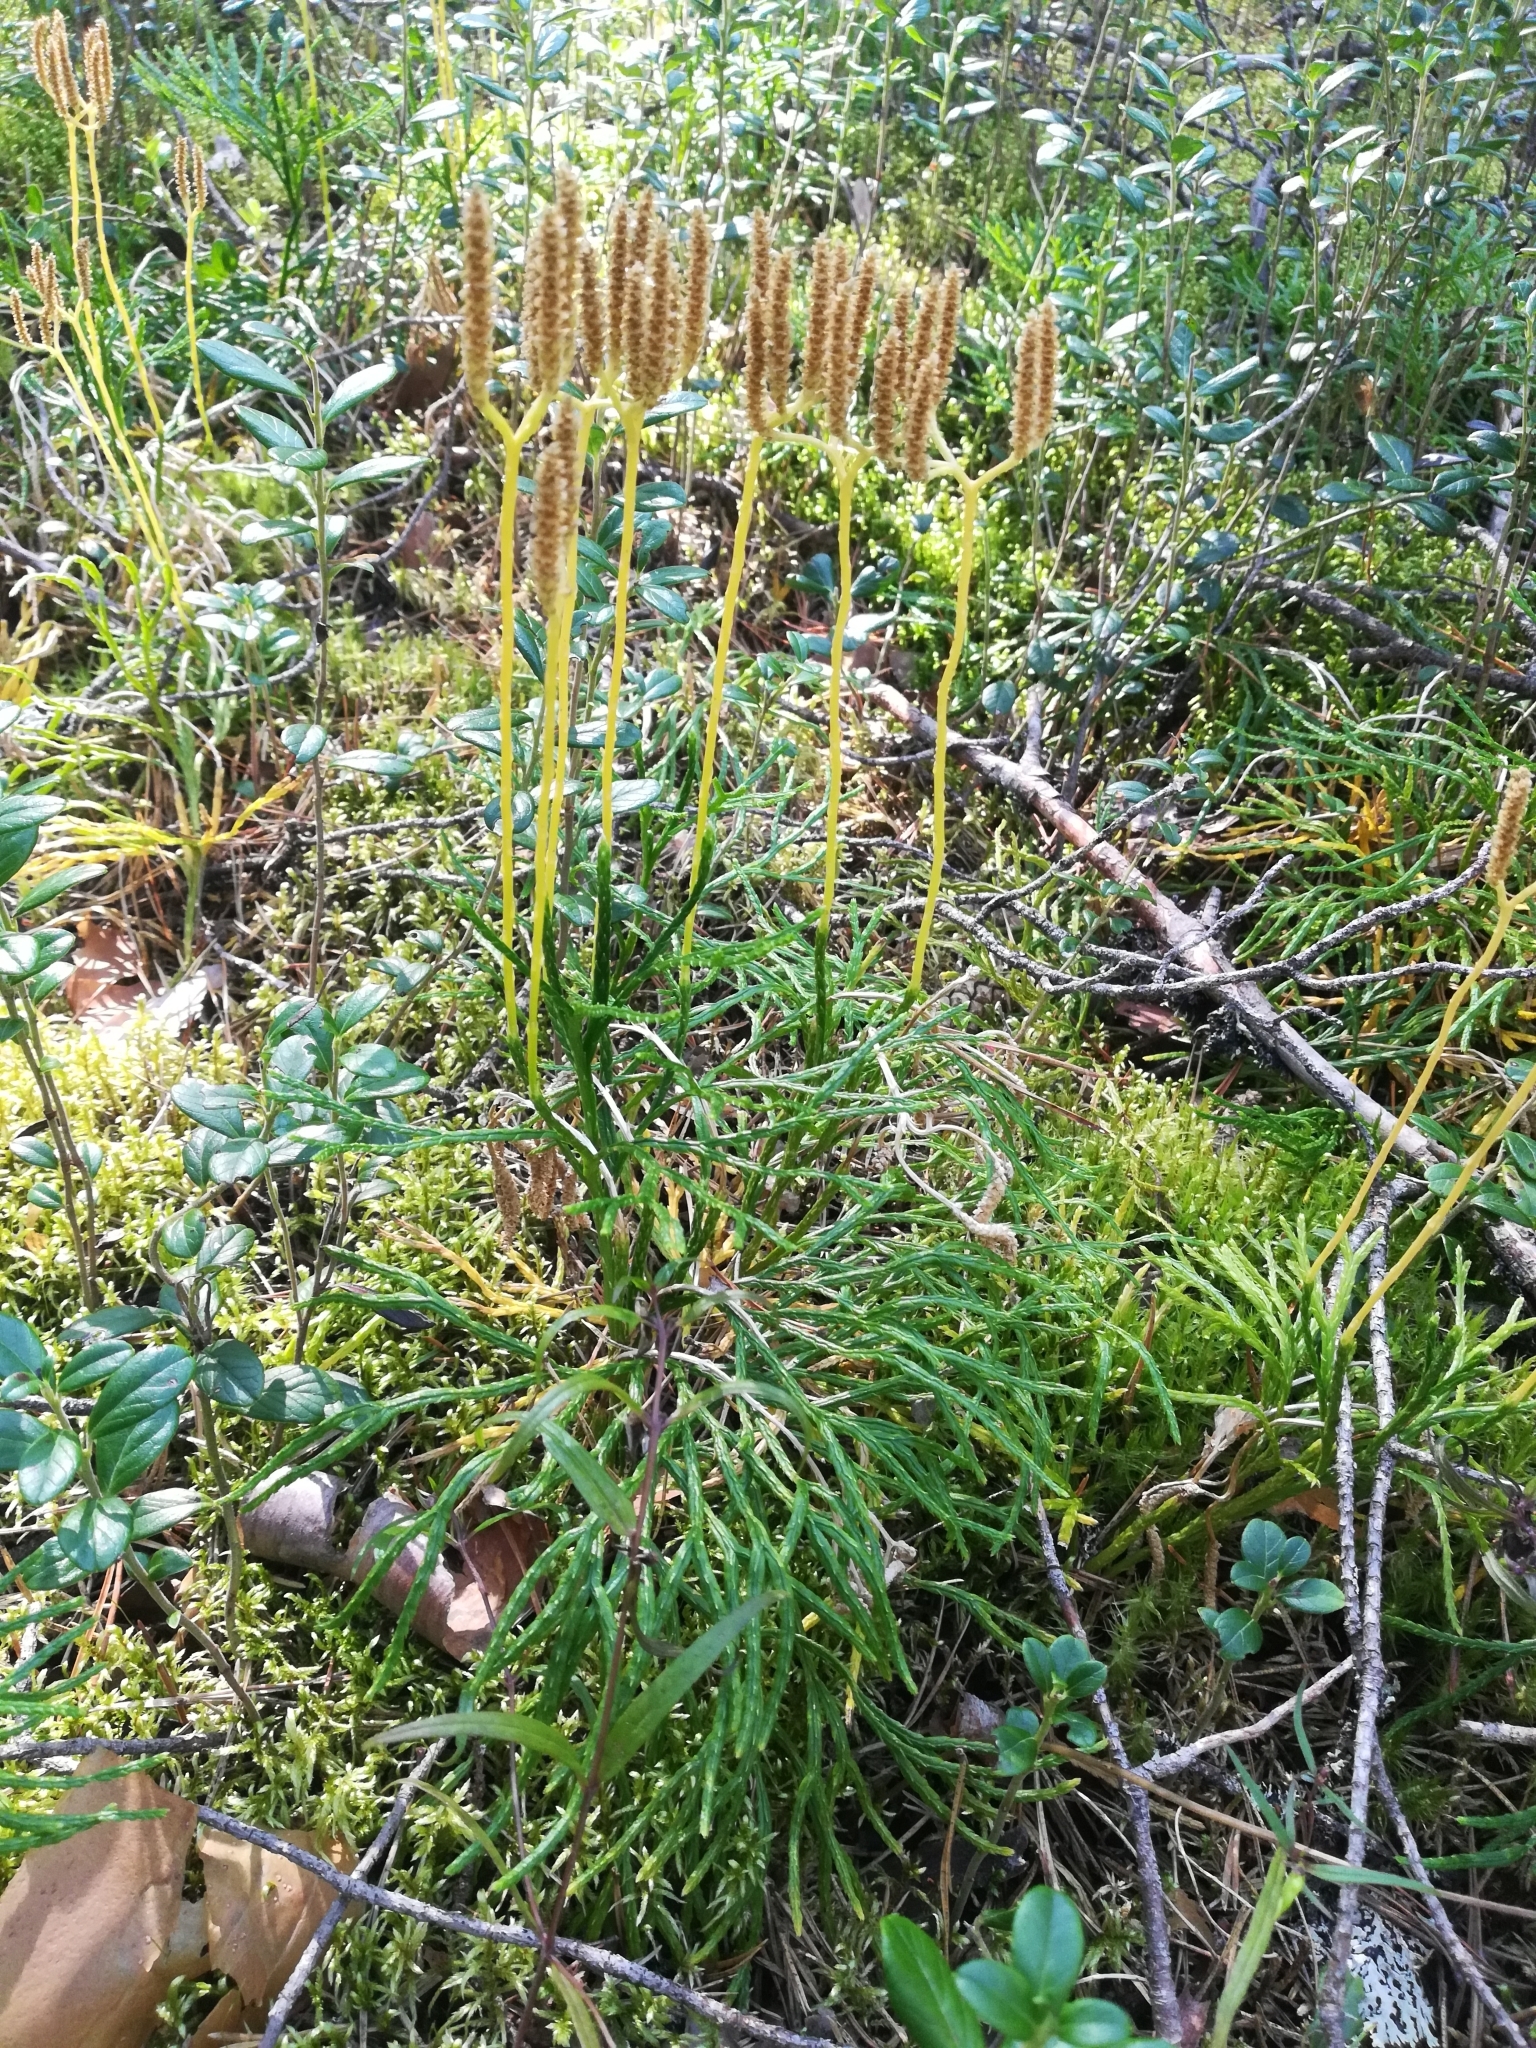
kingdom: Plantae
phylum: Tracheophyta
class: Lycopodiopsida
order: Lycopodiales
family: Lycopodiaceae
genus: Diphasiastrum
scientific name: Diphasiastrum complanatum
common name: Northern running-pine
